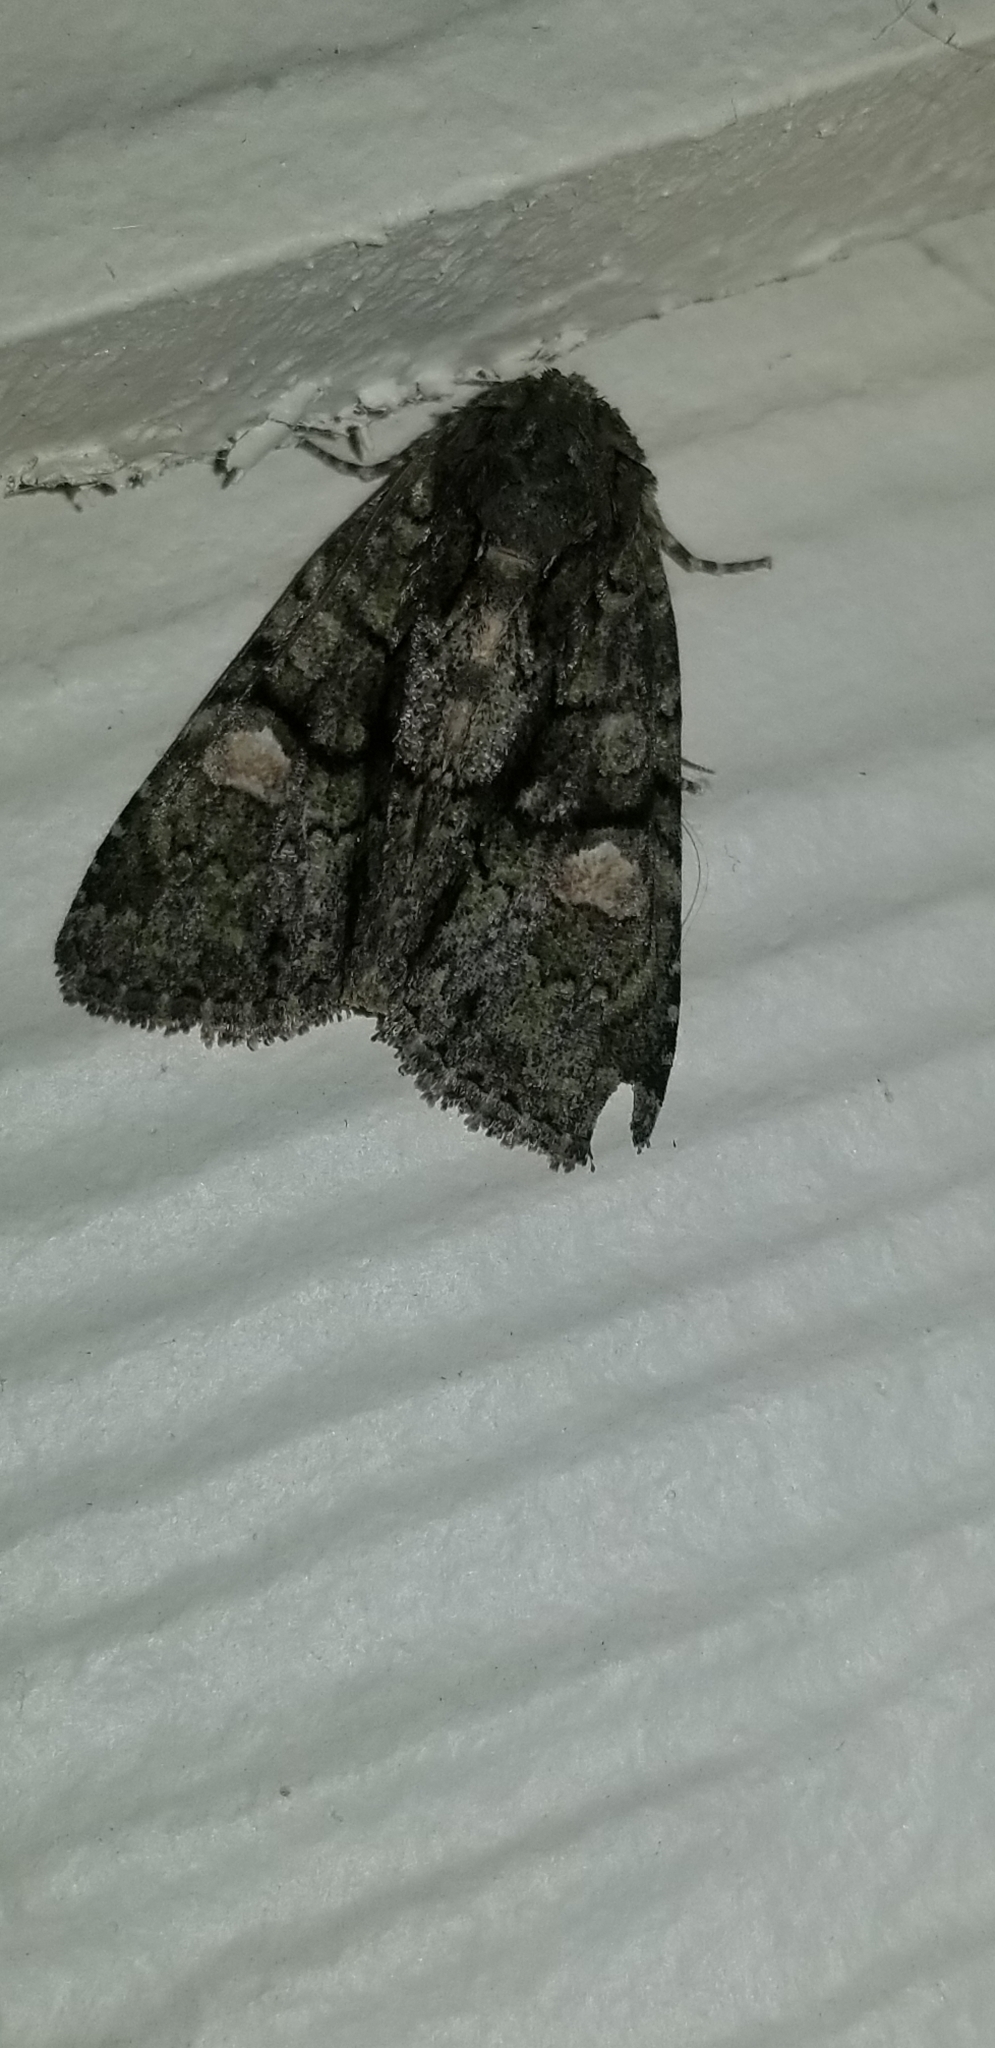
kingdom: Animalia
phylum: Arthropoda
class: Insecta
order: Lepidoptera
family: Noctuidae
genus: Phosphila
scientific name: Phosphila miselioides
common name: Spotted phosphila moth
